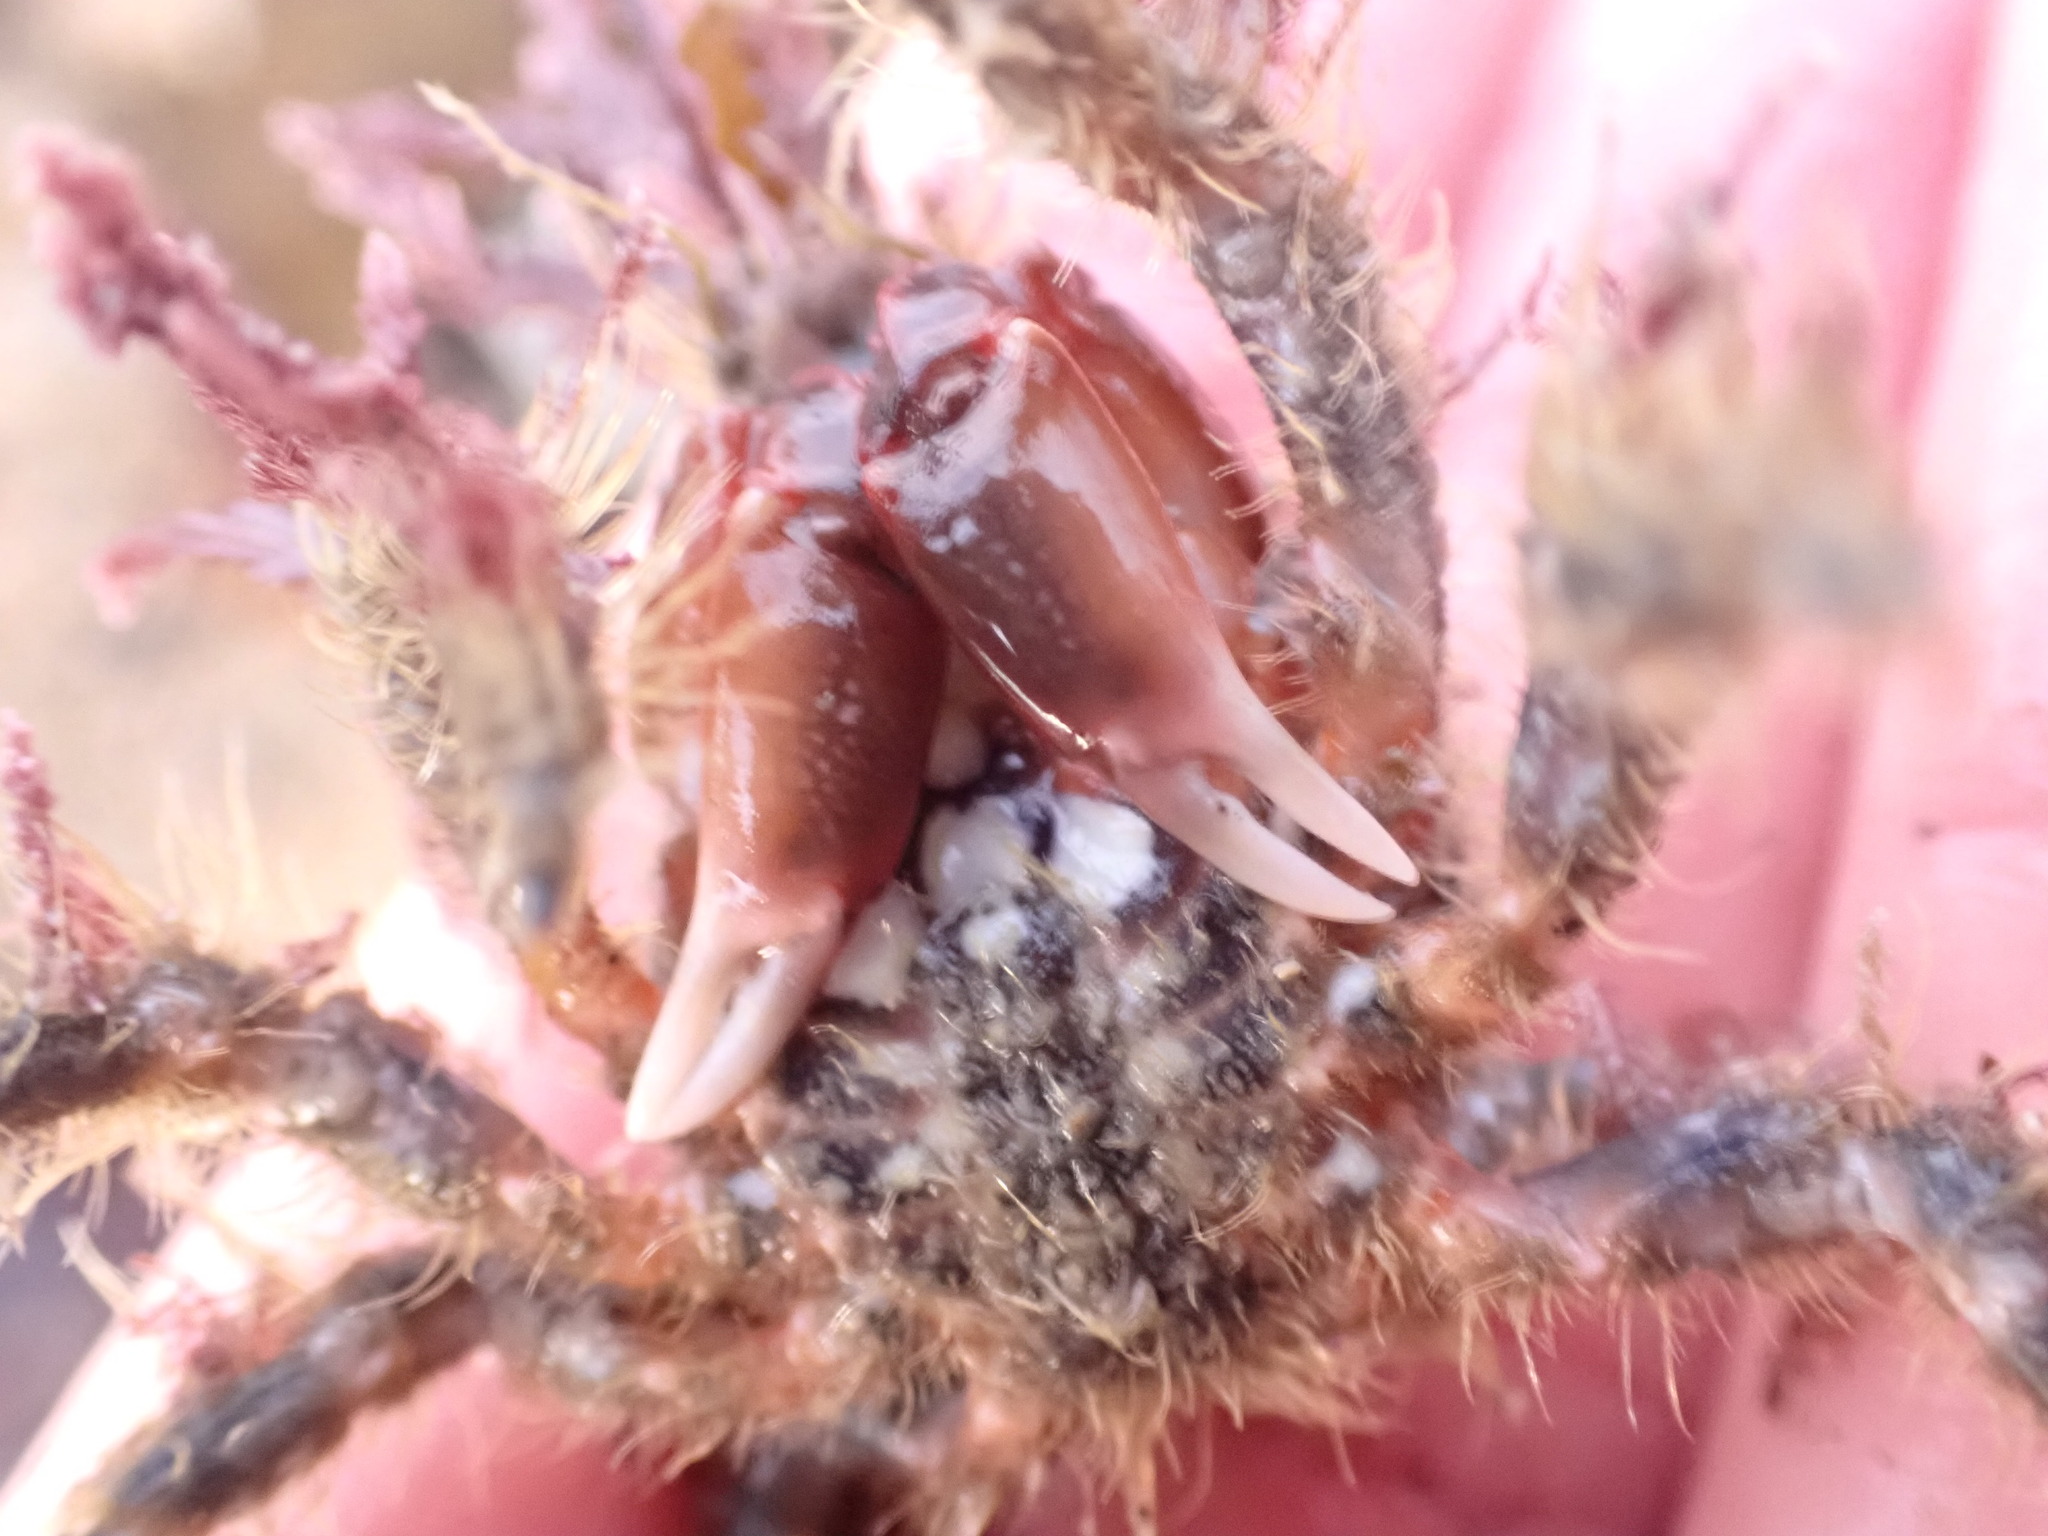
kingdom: Animalia
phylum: Arthropoda
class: Malacostraca
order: Decapoda
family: Majidae
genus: Notomithrax
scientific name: Notomithrax ursus
